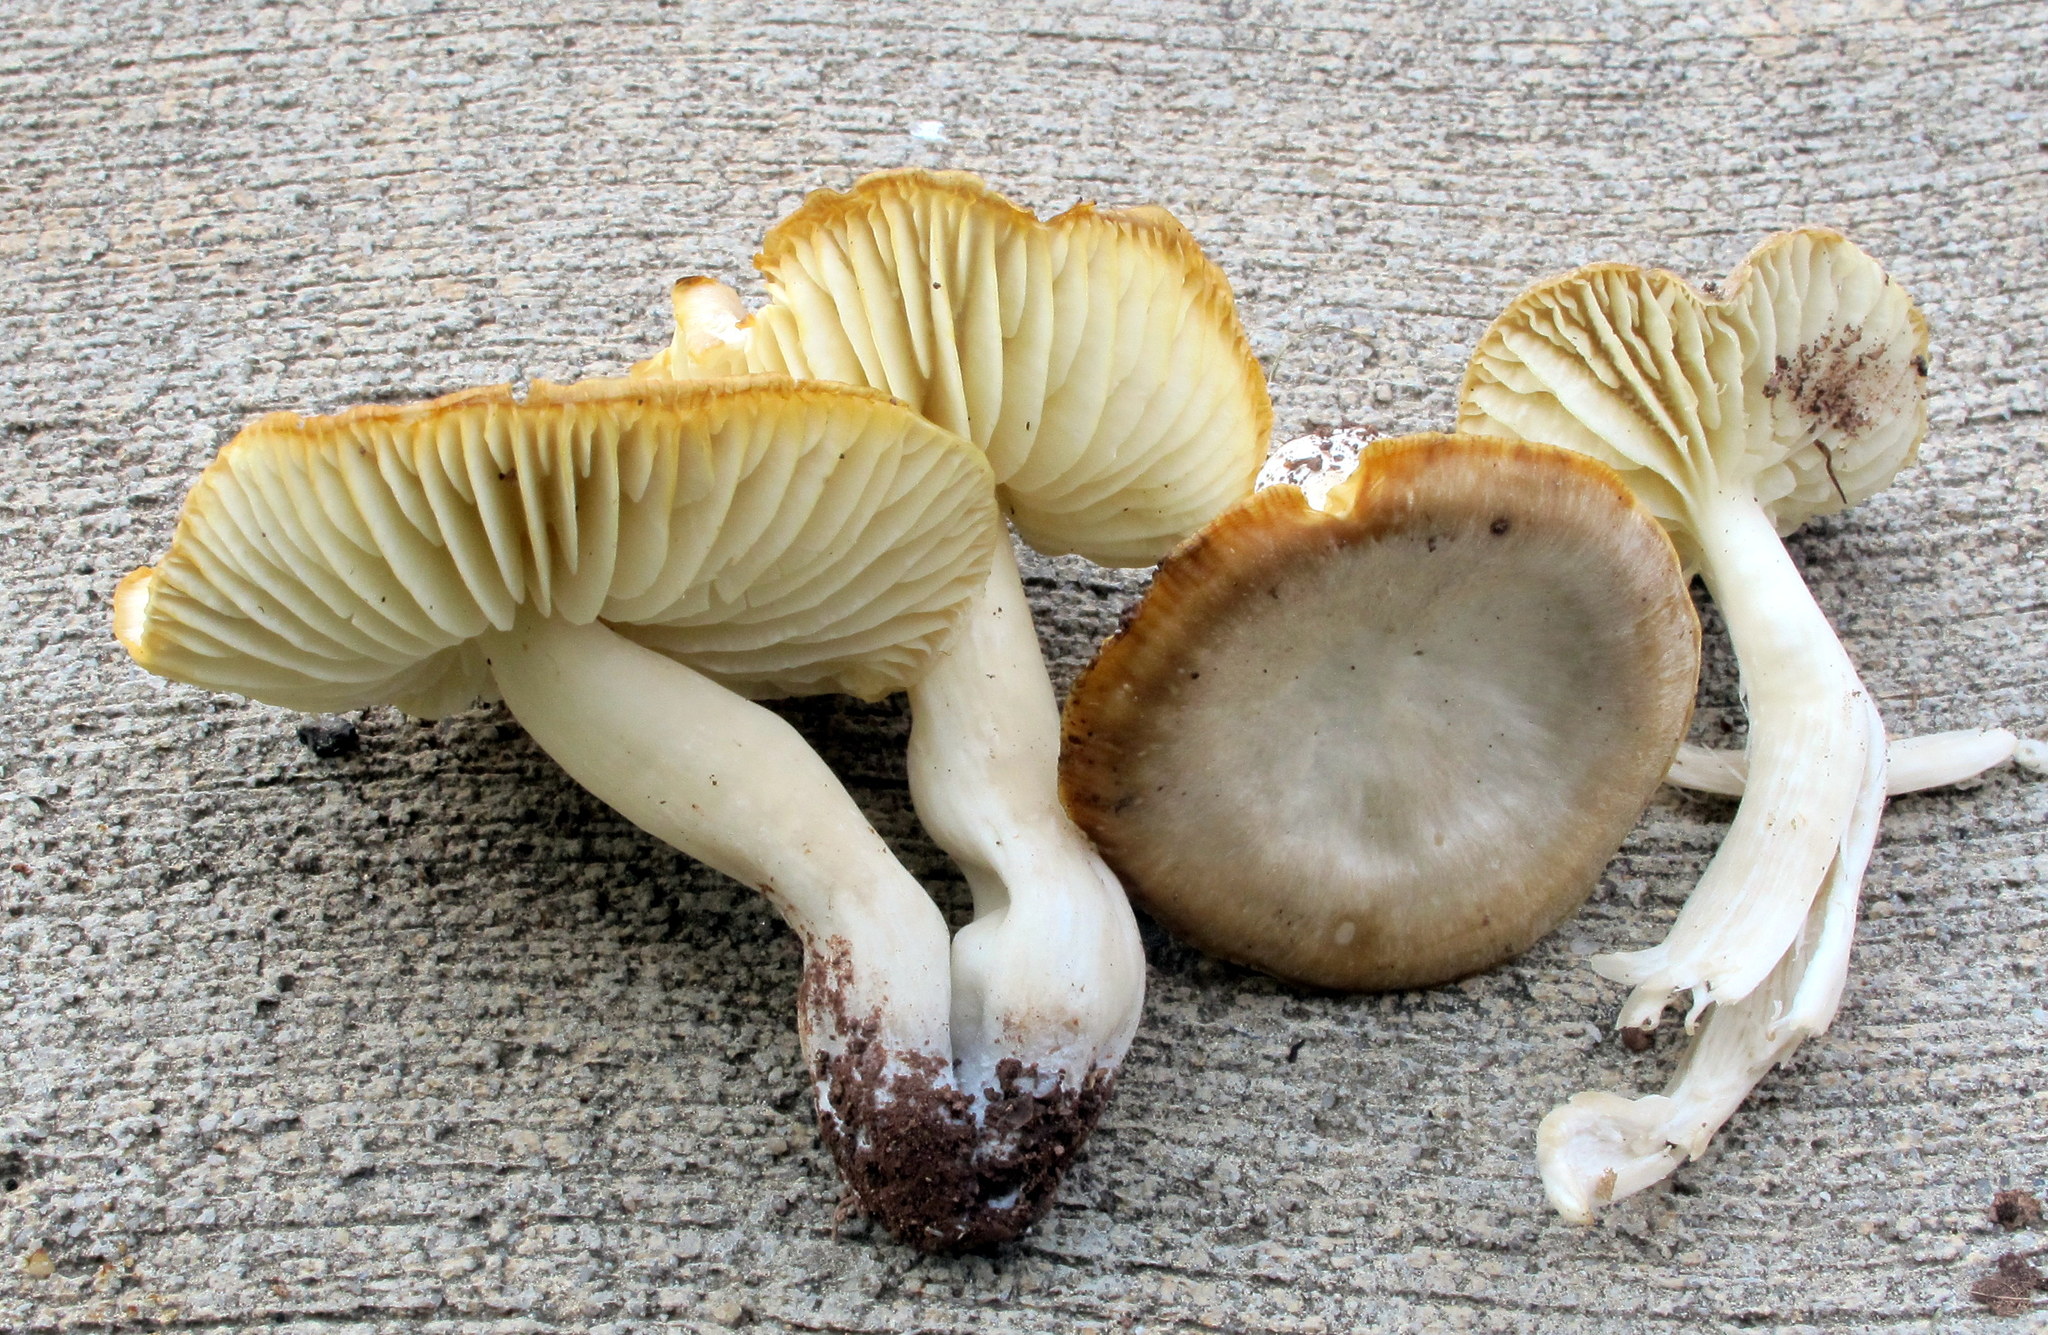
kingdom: Fungi
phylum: Basidiomycota
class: Agaricomycetes
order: Agaricales
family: Hygrophoraceae
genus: Neohygrocybe
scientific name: Neohygrocybe nitrata
